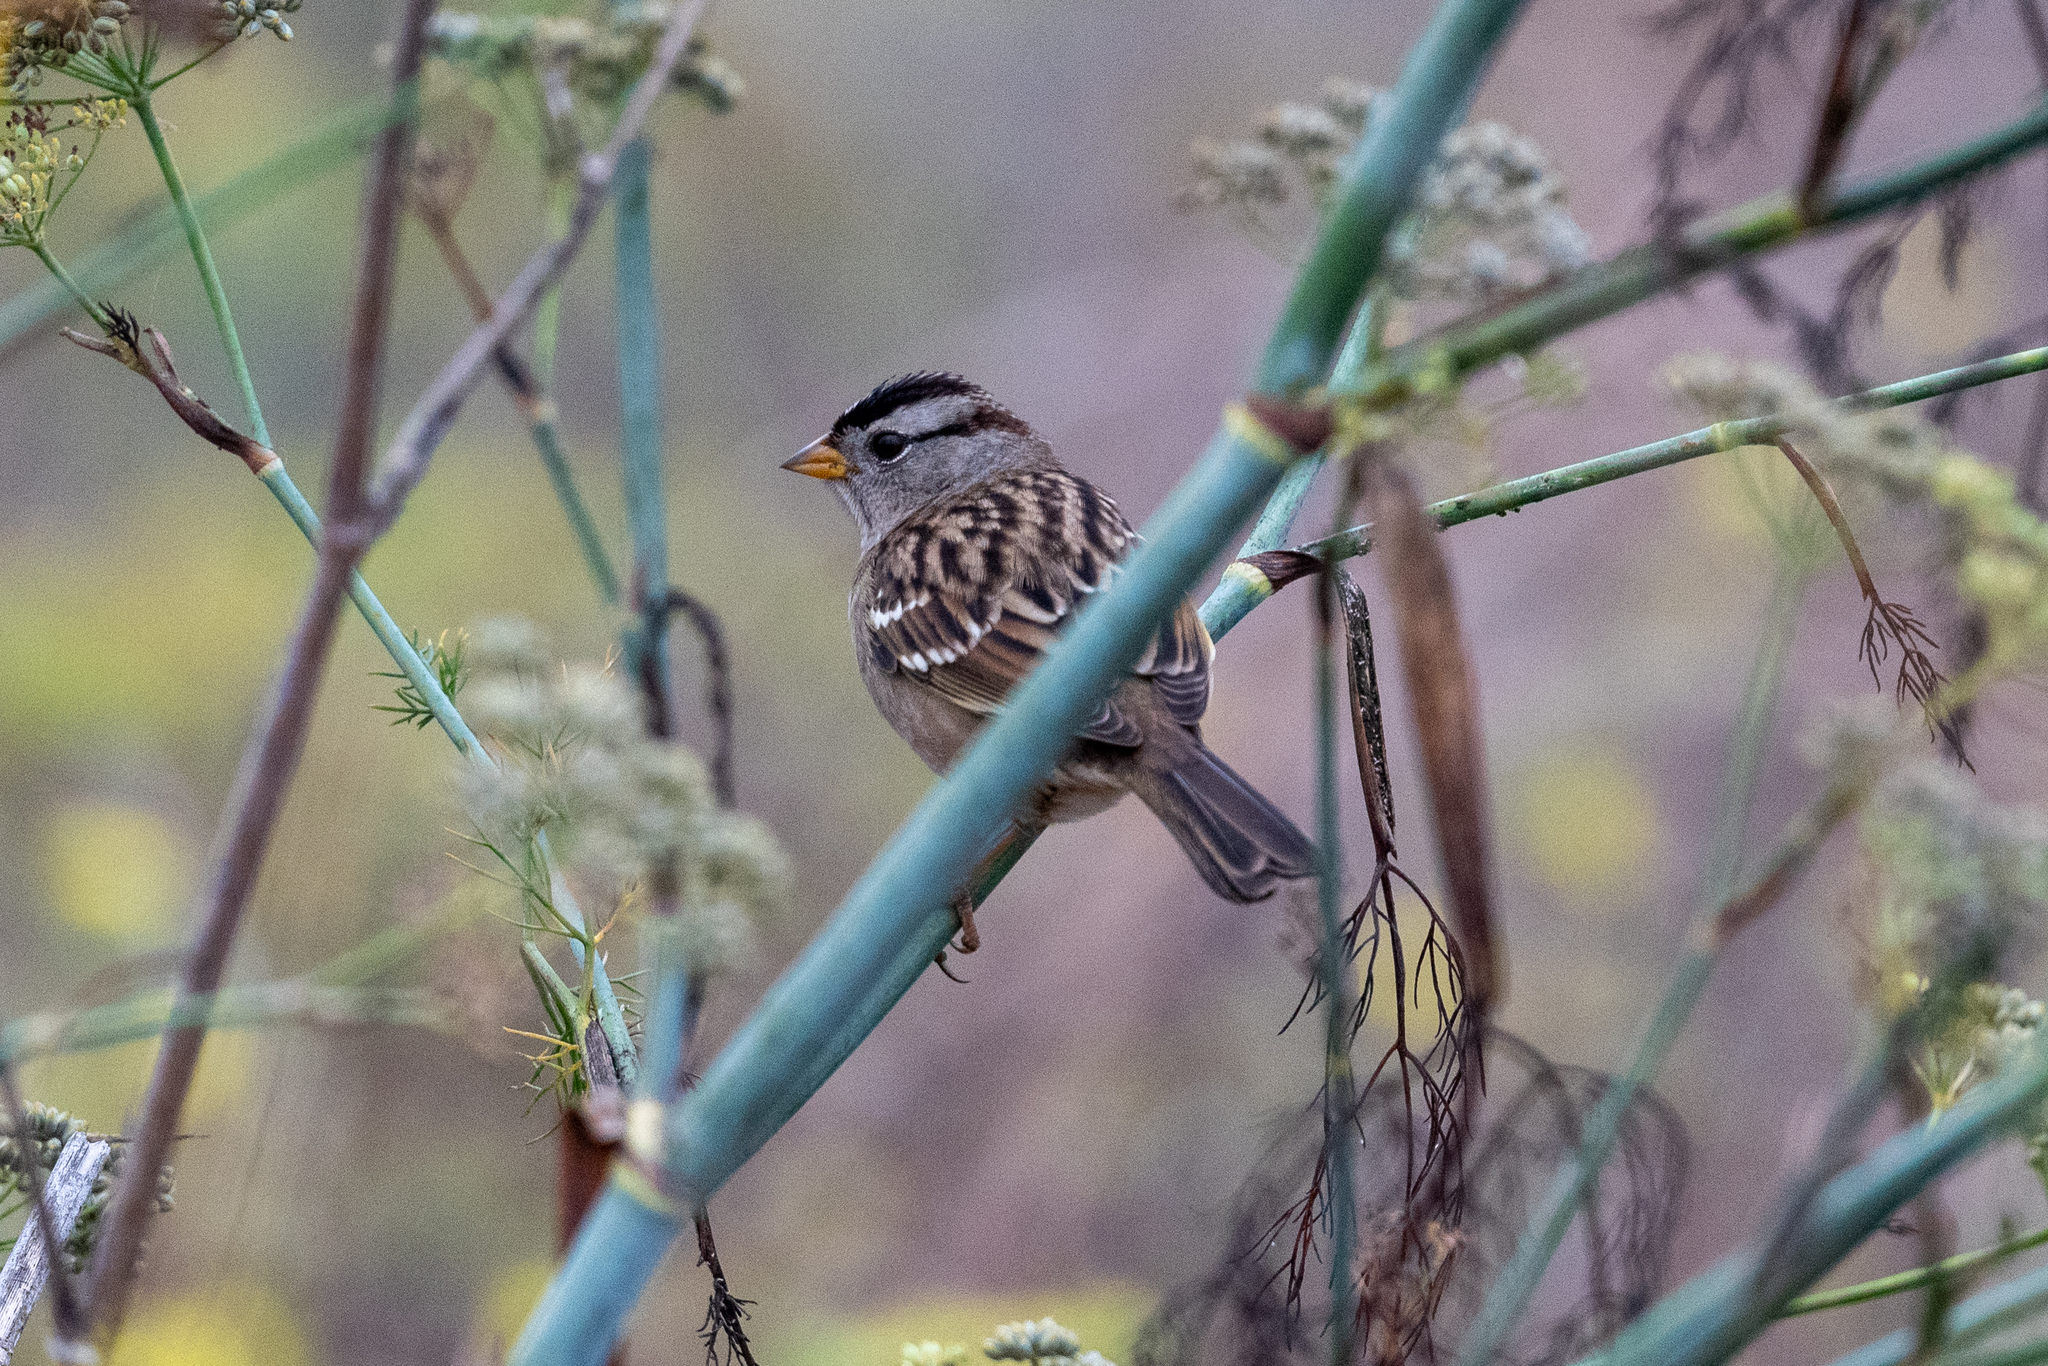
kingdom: Animalia
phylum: Chordata
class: Aves
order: Passeriformes
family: Passerellidae
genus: Zonotrichia
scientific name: Zonotrichia leucophrys
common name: White-crowned sparrow
